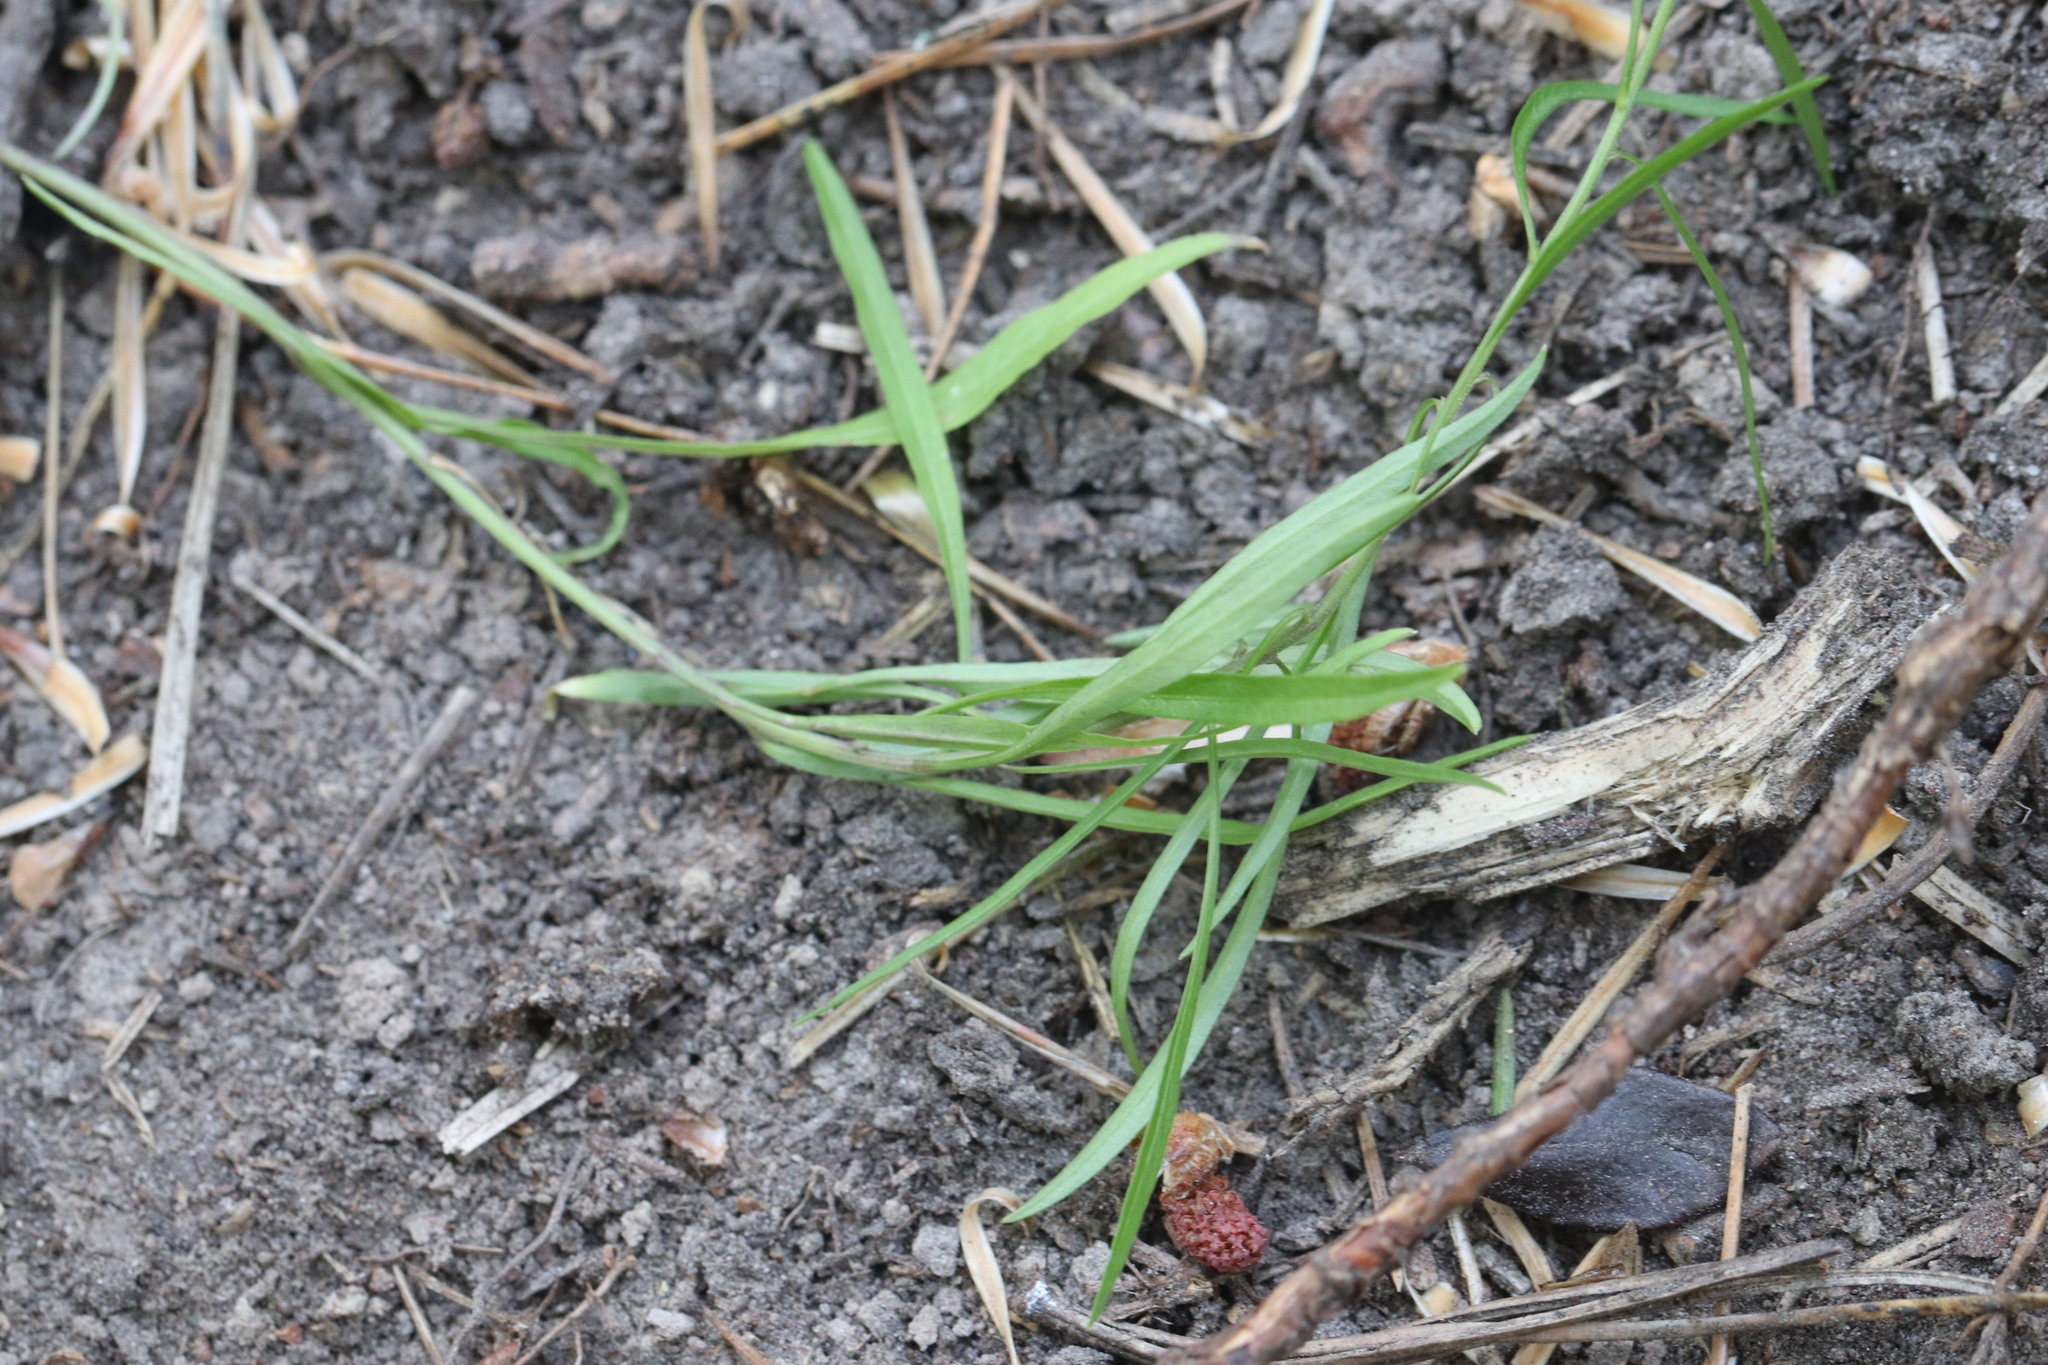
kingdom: Plantae
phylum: Tracheophyta
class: Magnoliopsida
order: Asterales
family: Campanulaceae
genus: Campanula
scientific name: Campanula rotundifolia
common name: Harebell
